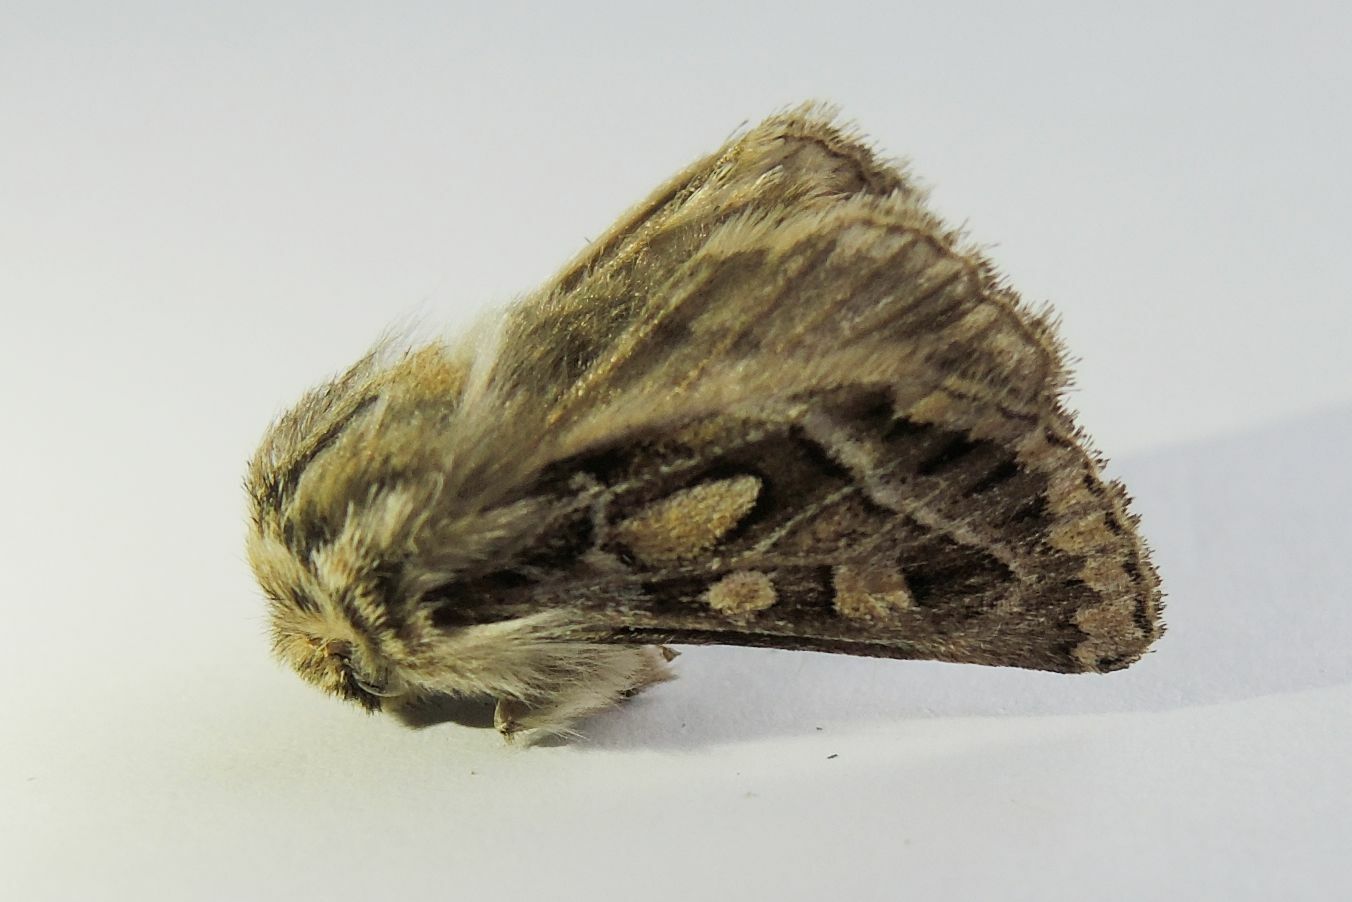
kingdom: Animalia
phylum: Arthropoda
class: Insecta
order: Lepidoptera
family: Noctuidae
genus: Ulochlaena
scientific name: Ulochlaena hirta
